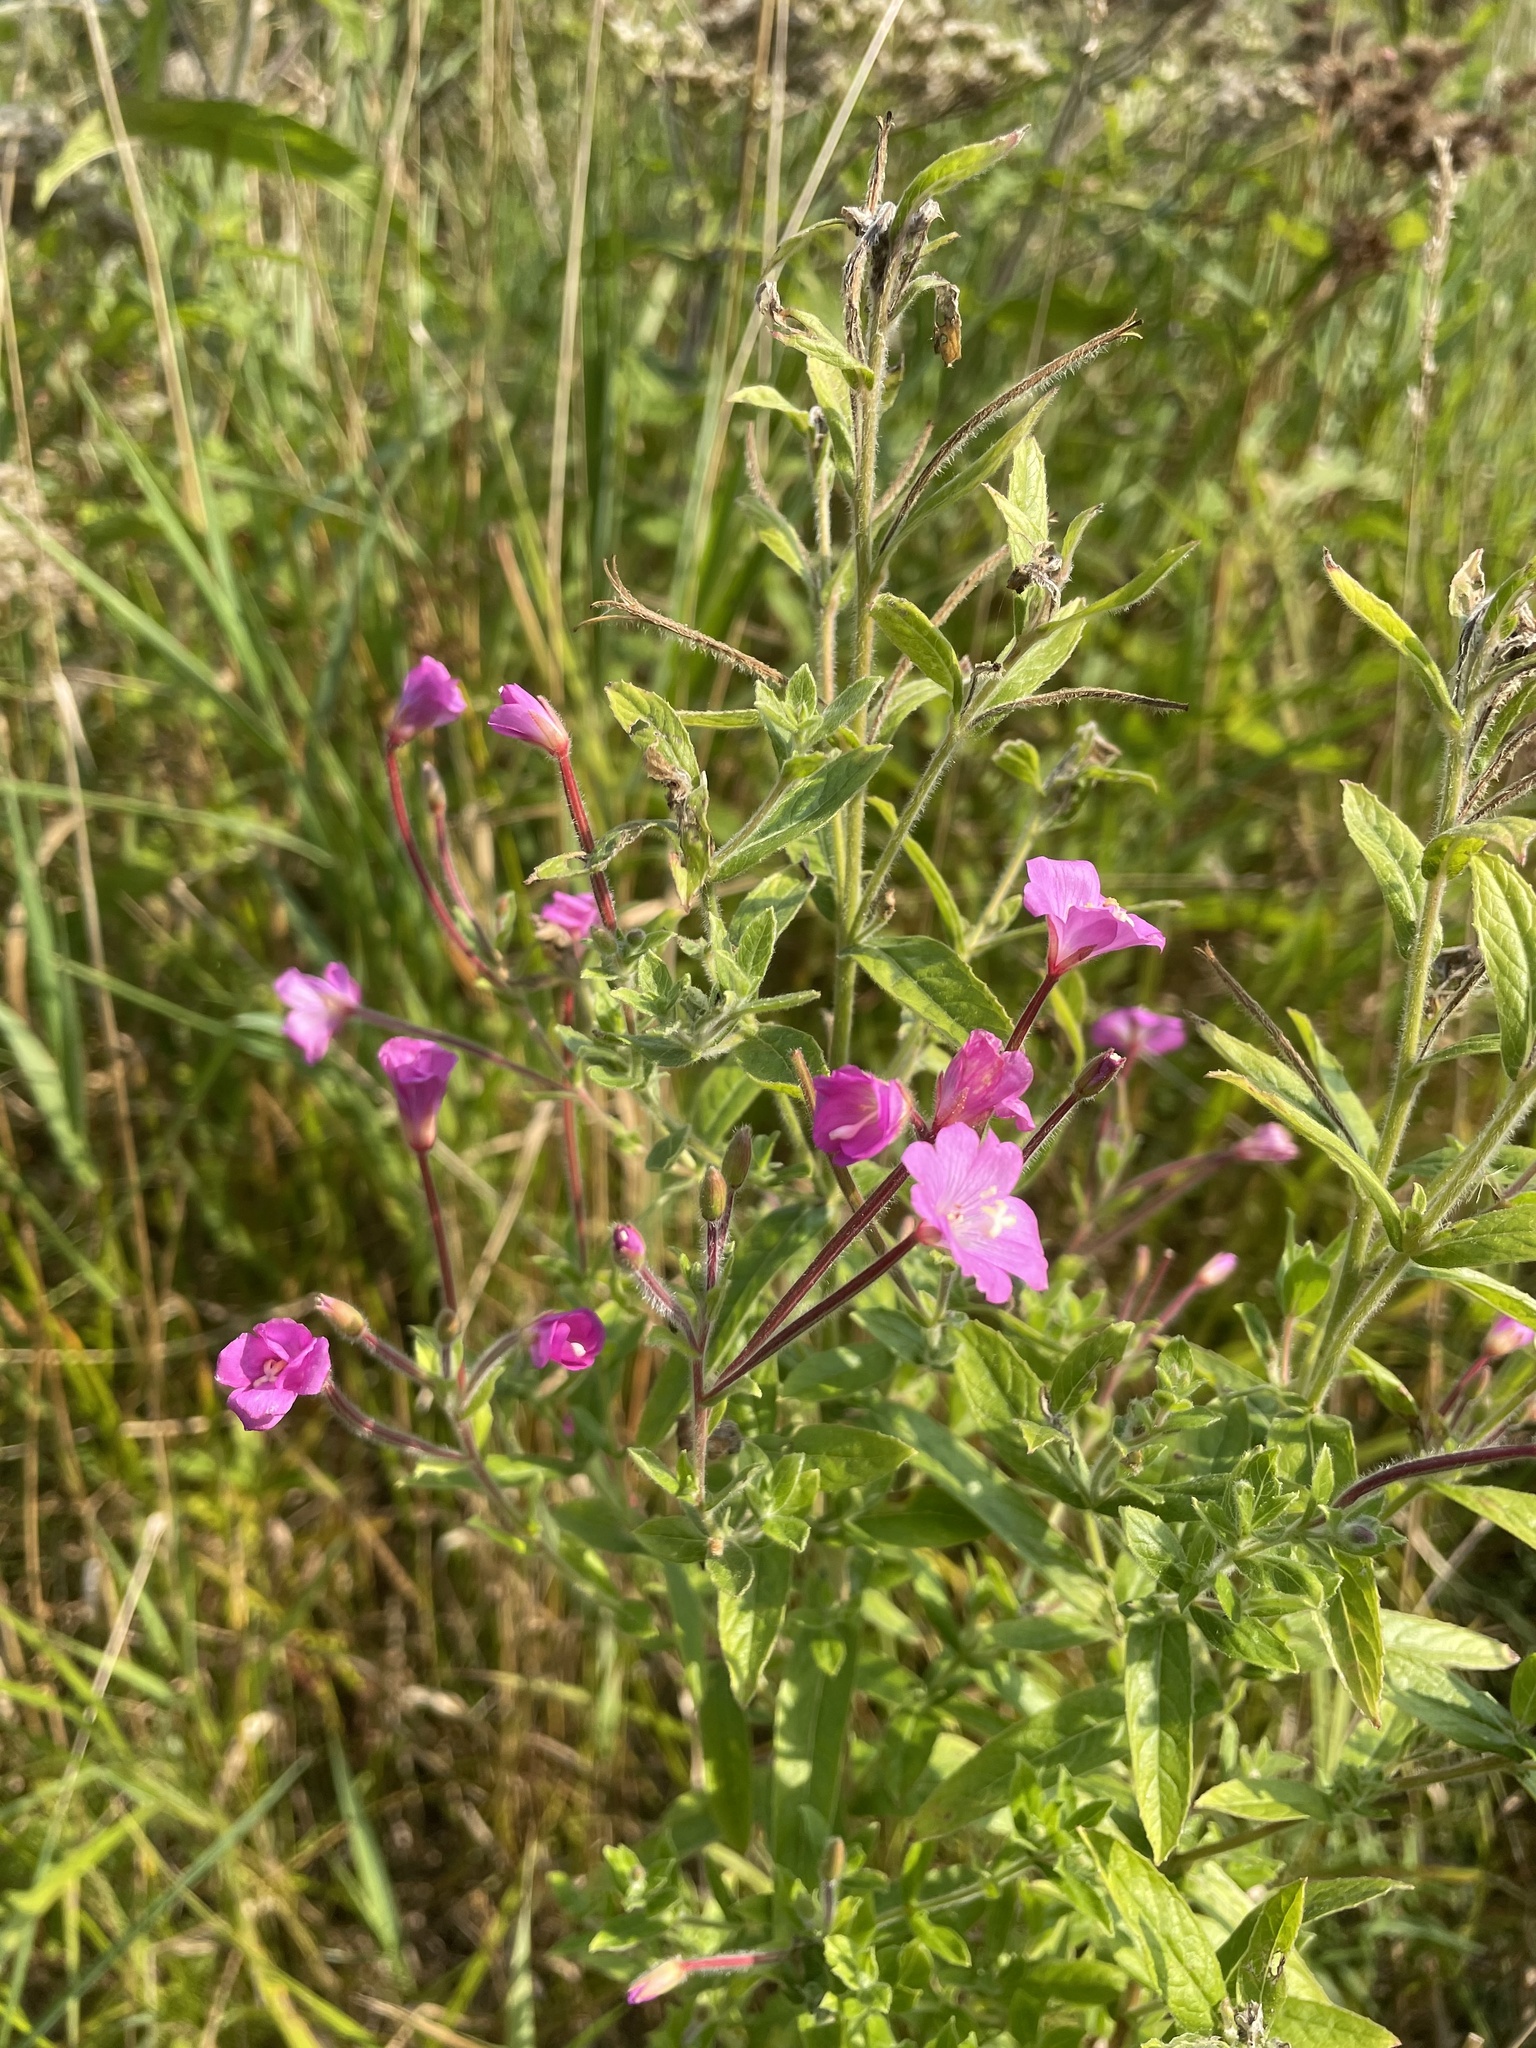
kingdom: Plantae
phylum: Tracheophyta
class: Magnoliopsida
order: Myrtales
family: Onagraceae
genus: Epilobium
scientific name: Epilobium hirsutum
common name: Great willowherb
